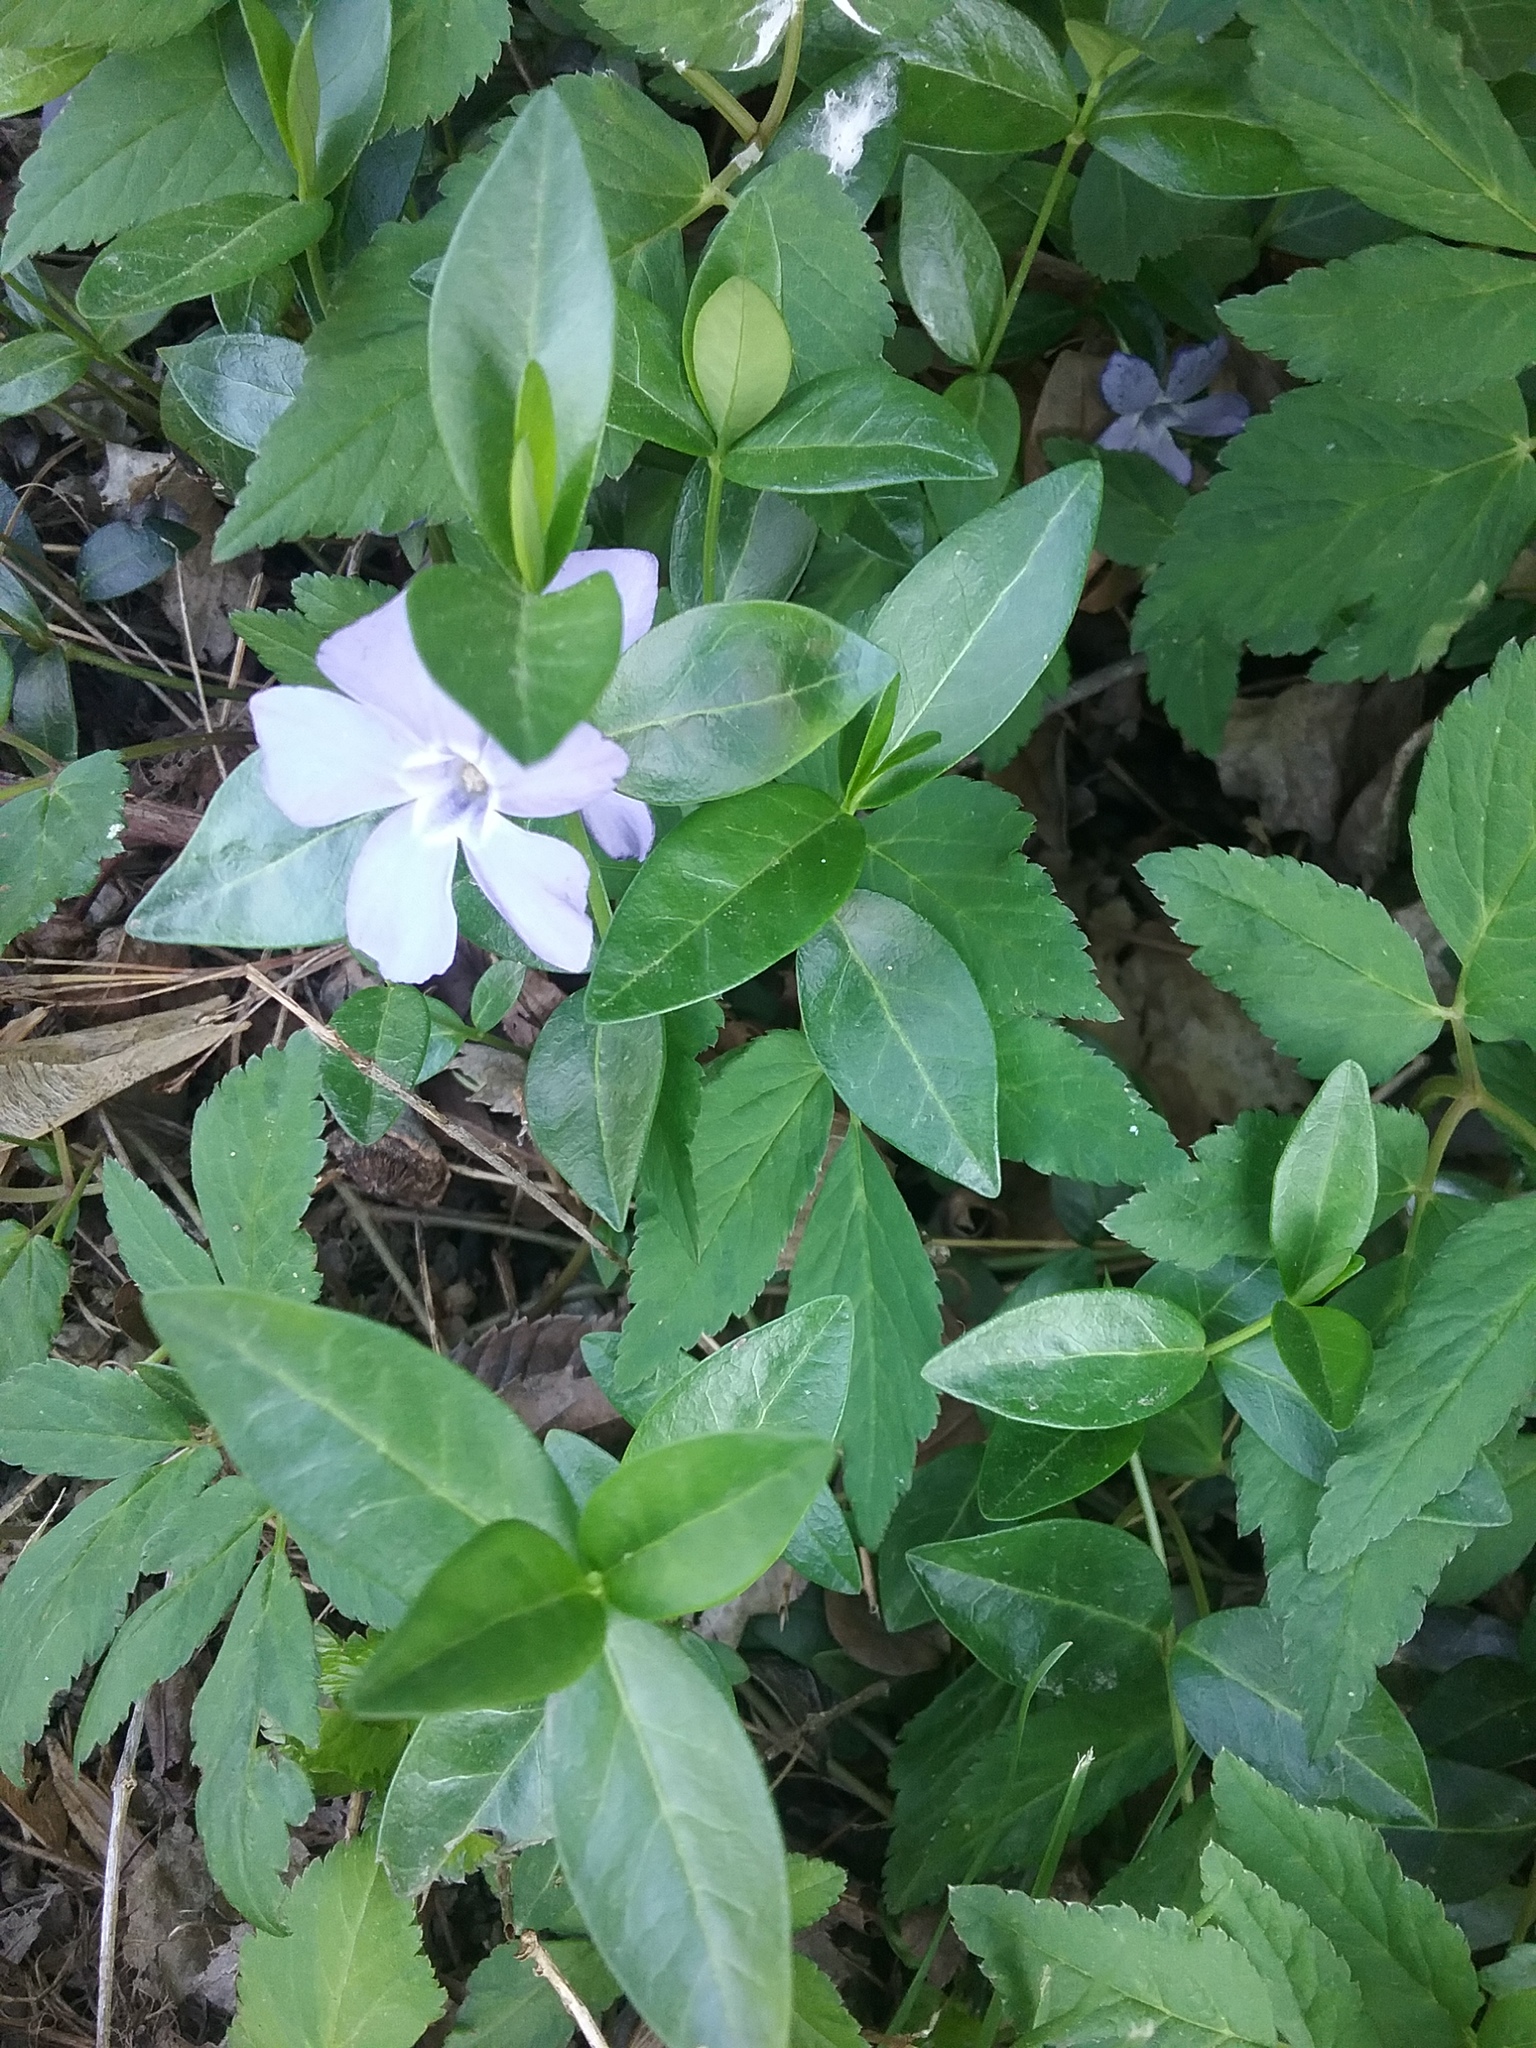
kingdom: Plantae
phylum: Tracheophyta
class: Magnoliopsida
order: Gentianales
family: Apocynaceae
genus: Vinca
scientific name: Vinca minor
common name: Lesser periwinkle
